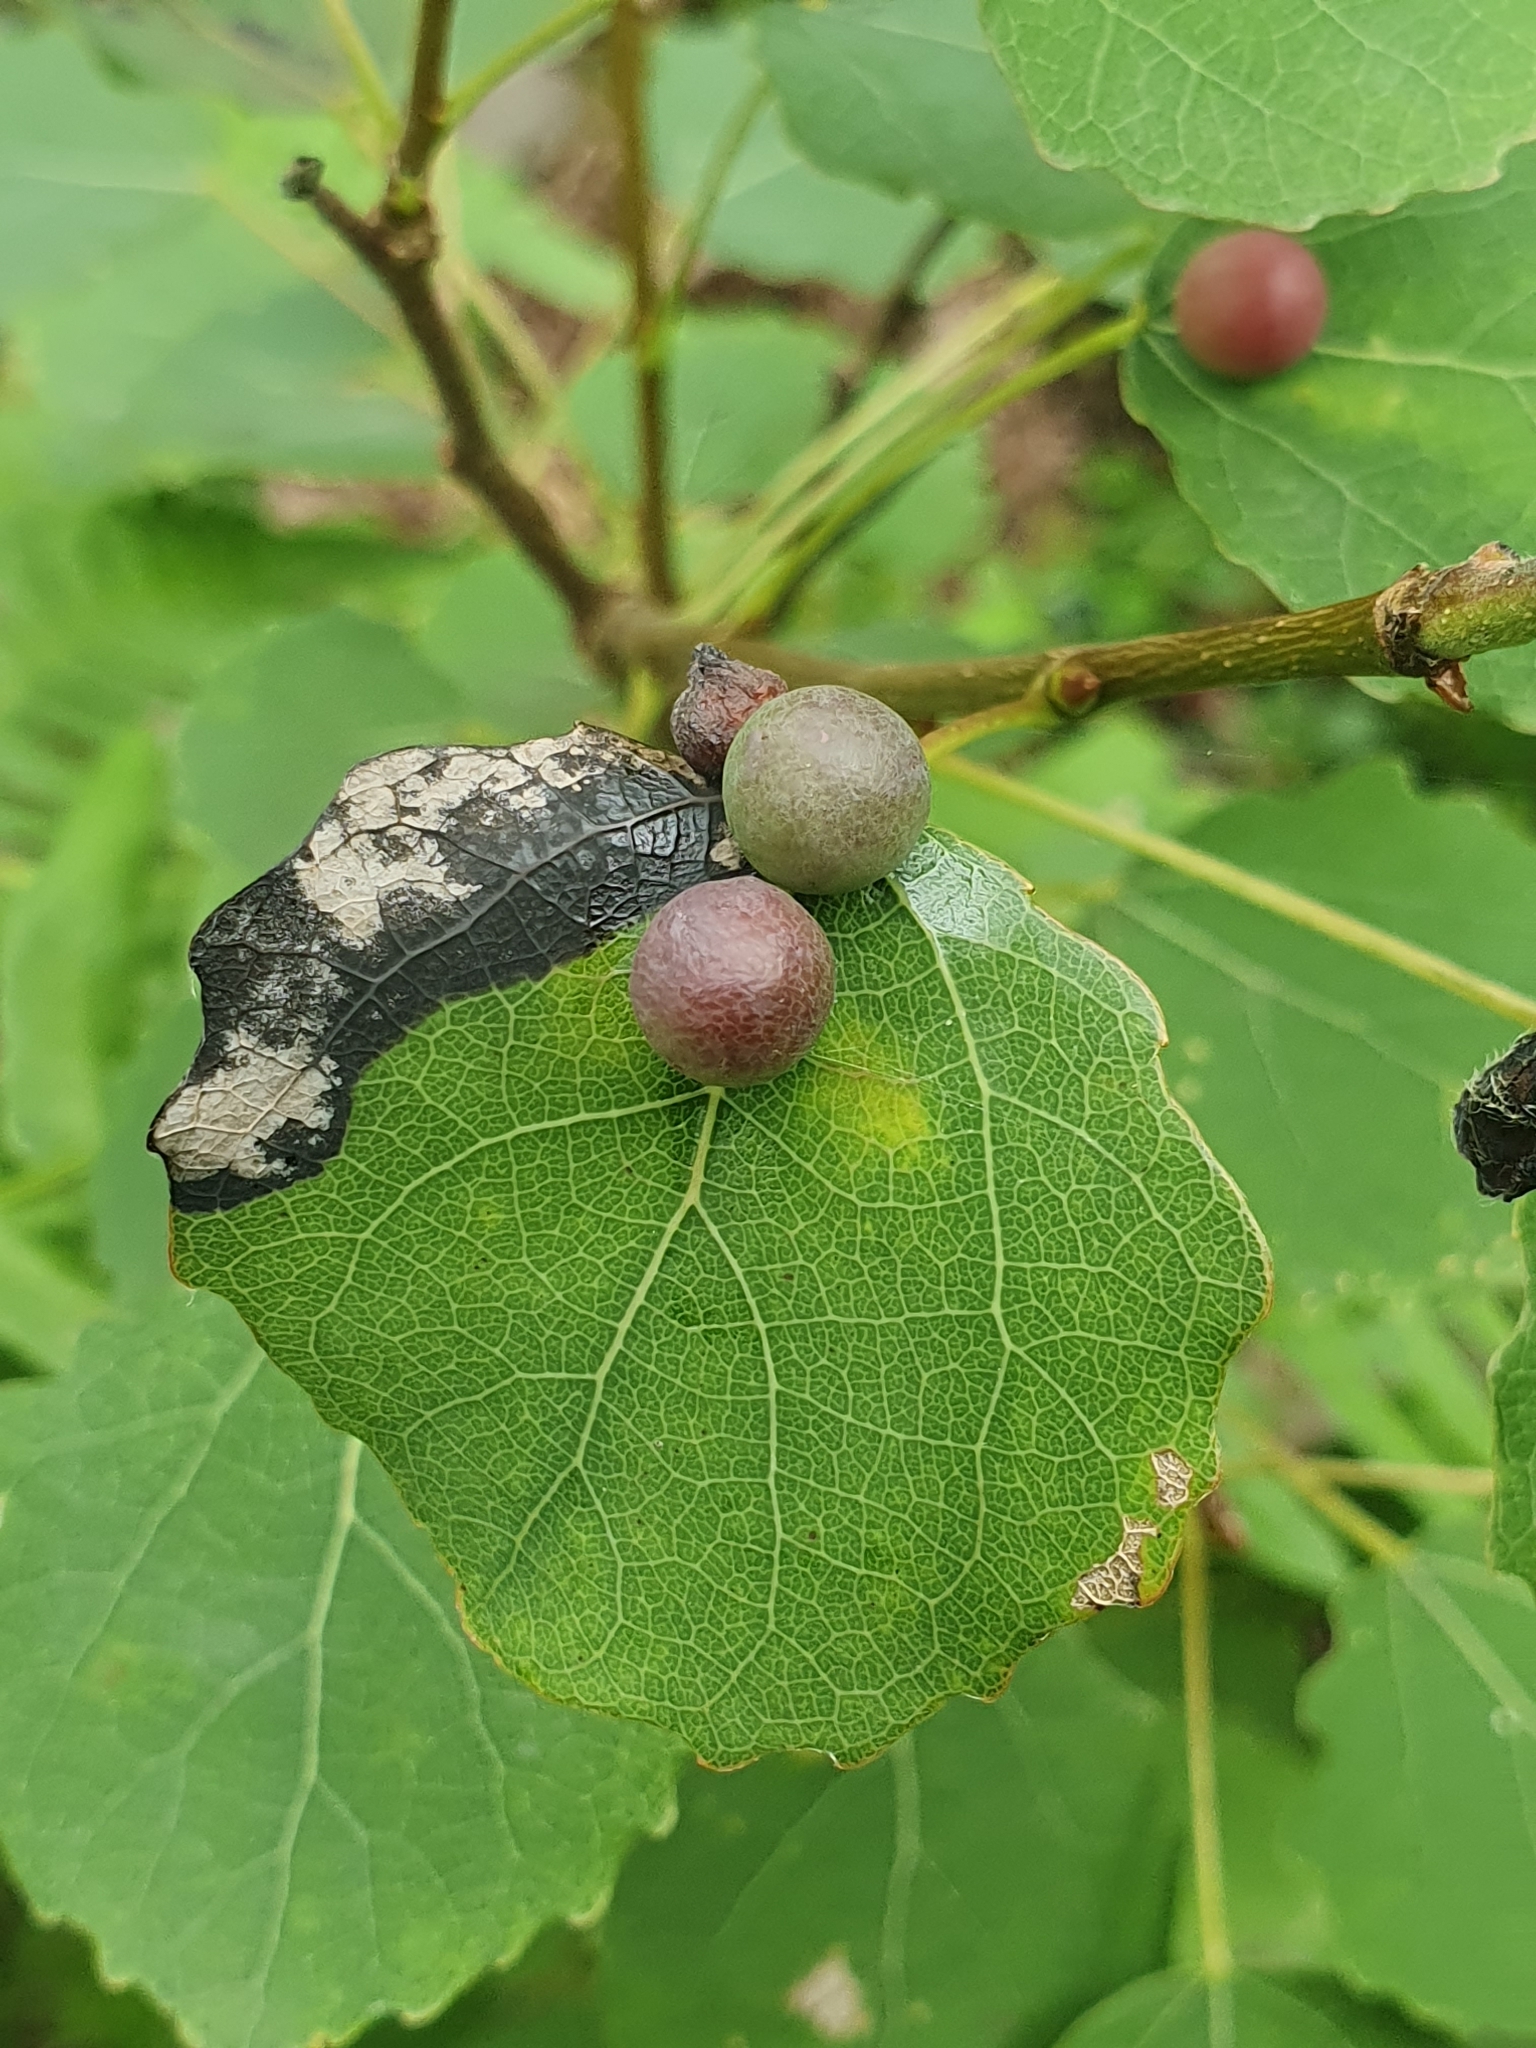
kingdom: Animalia
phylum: Arthropoda
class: Insecta
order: Diptera
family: Cecidomyiidae
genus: Harmandiola
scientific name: Harmandiola tremulae
